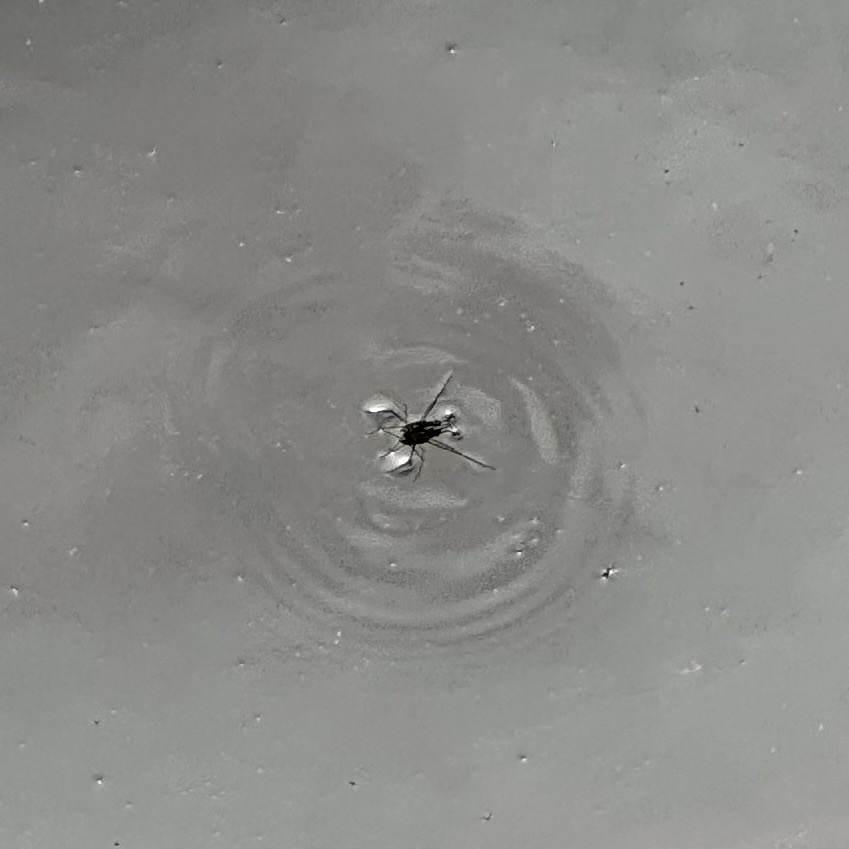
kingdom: Animalia
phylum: Arthropoda
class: Insecta
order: Hemiptera
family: Gerridae
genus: Tenagogerris
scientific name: Tenagogerris euphrosyne
